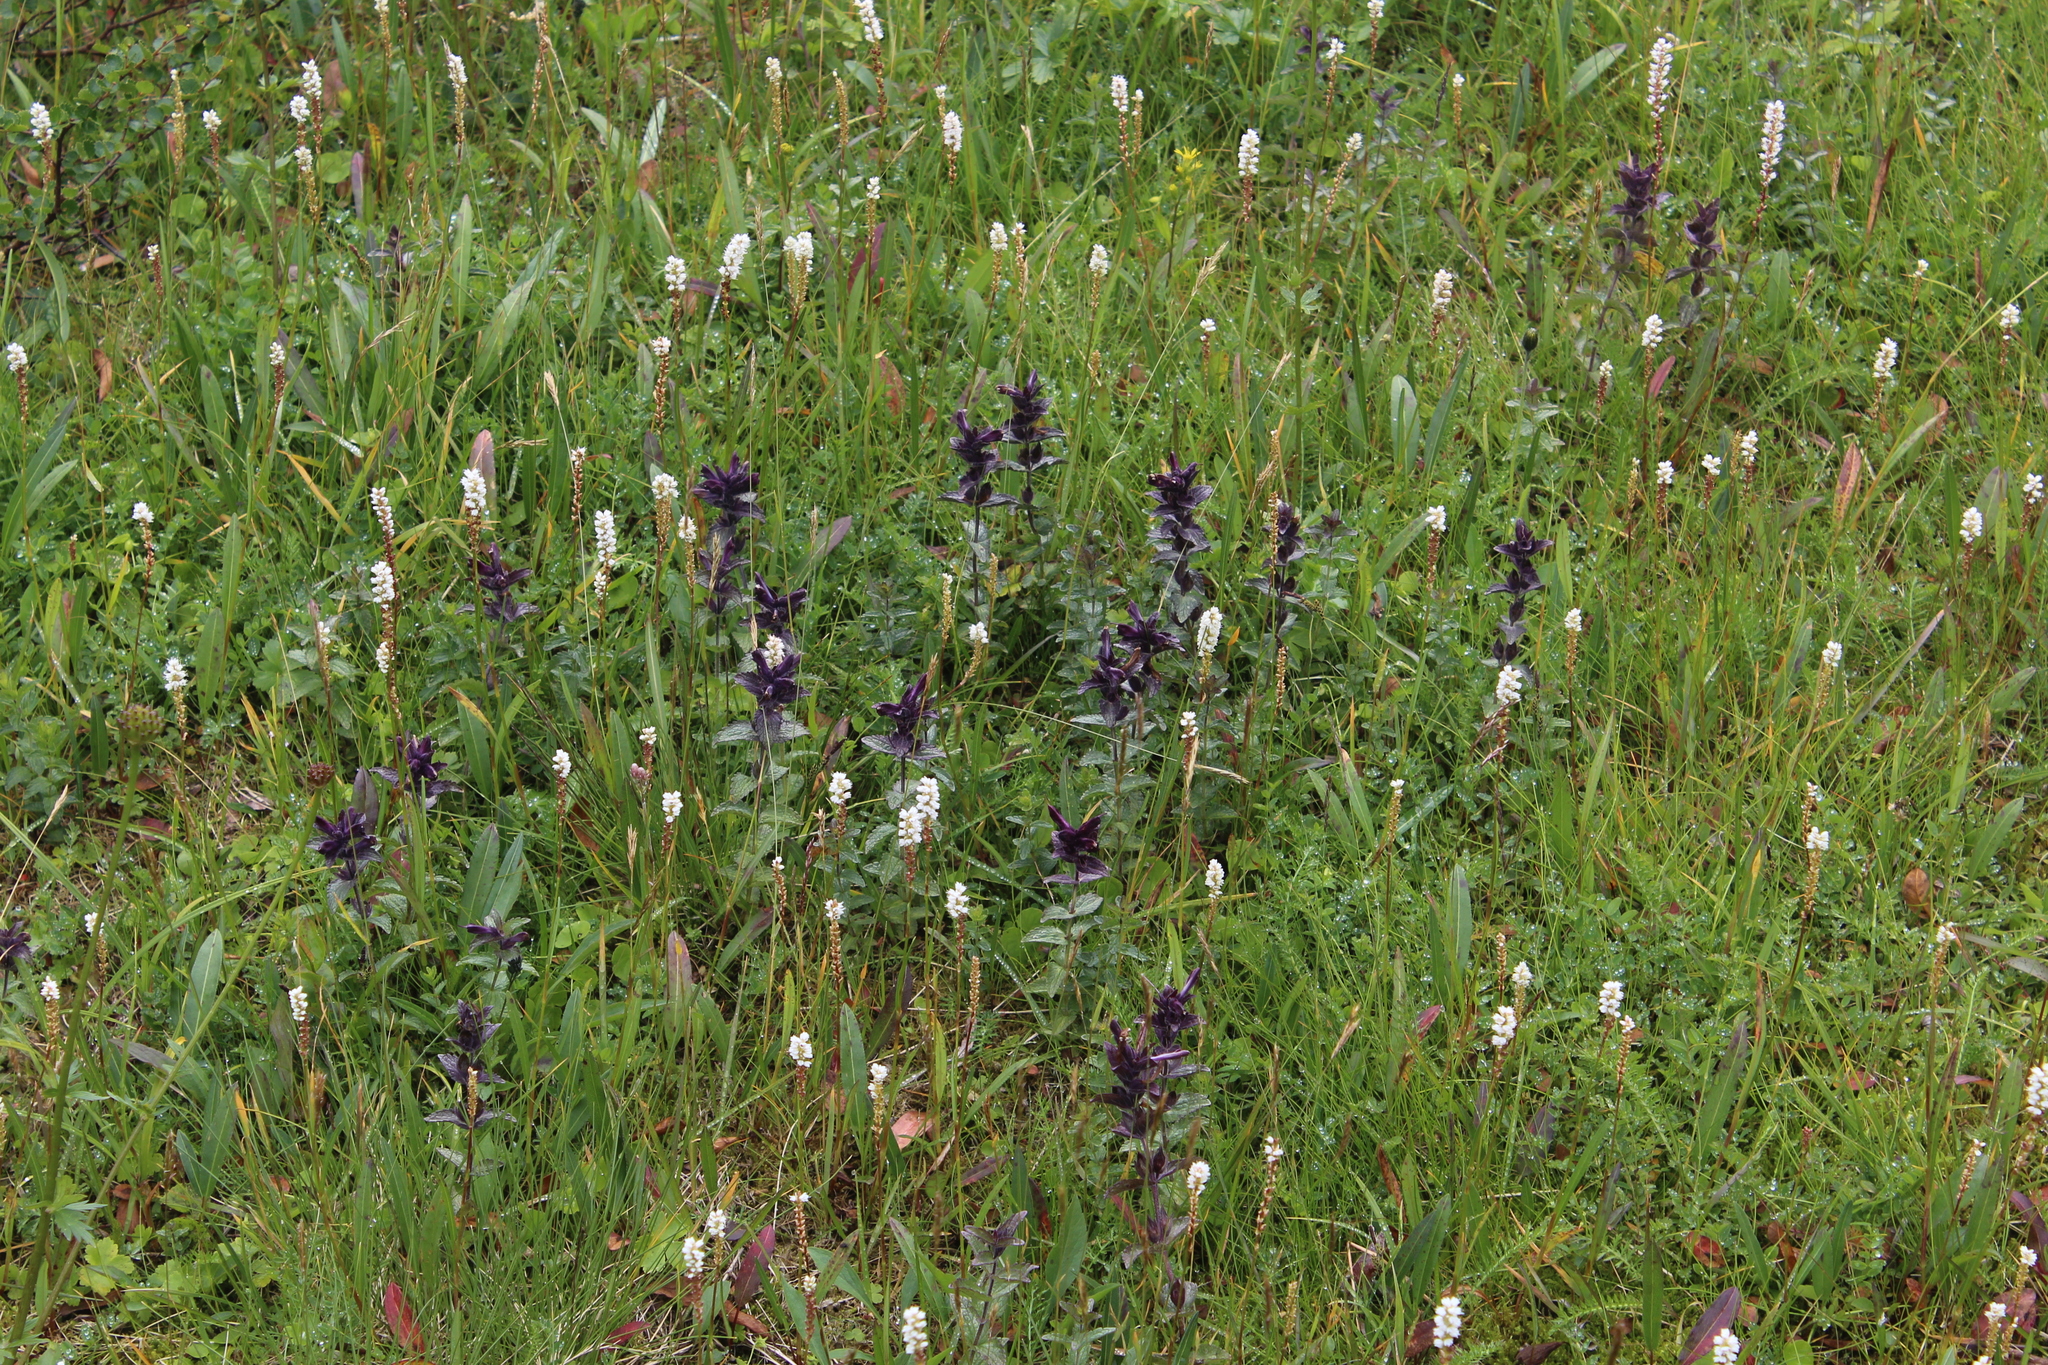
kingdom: Plantae
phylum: Tracheophyta
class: Magnoliopsida
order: Lamiales
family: Orobanchaceae
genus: Bartsia
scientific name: Bartsia alpina
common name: Alpine bartsia
